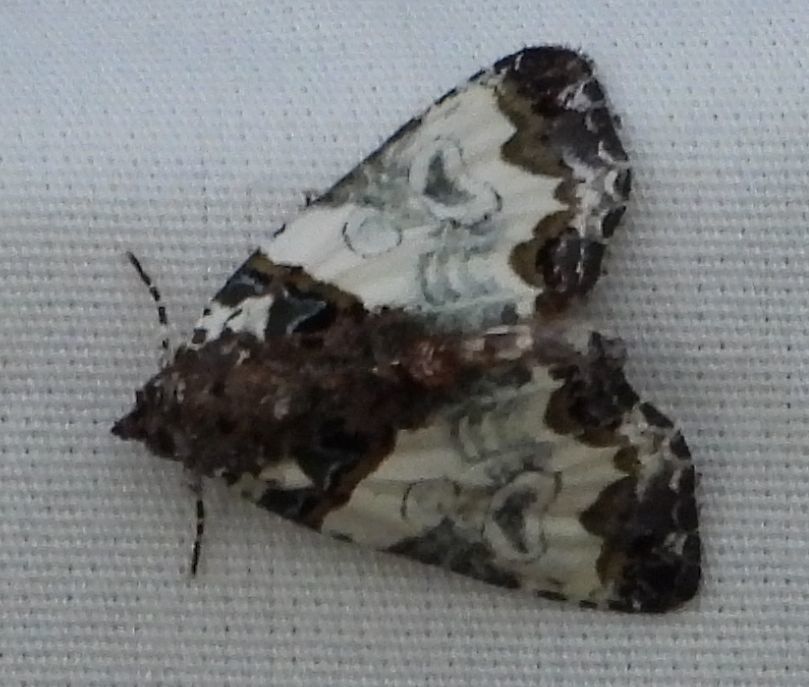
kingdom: Animalia
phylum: Arthropoda
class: Insecta
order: Lepidoptera
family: Noctuidae
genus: Cerma
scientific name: Cerma cerintha
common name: Tufted bird-dropping moth
